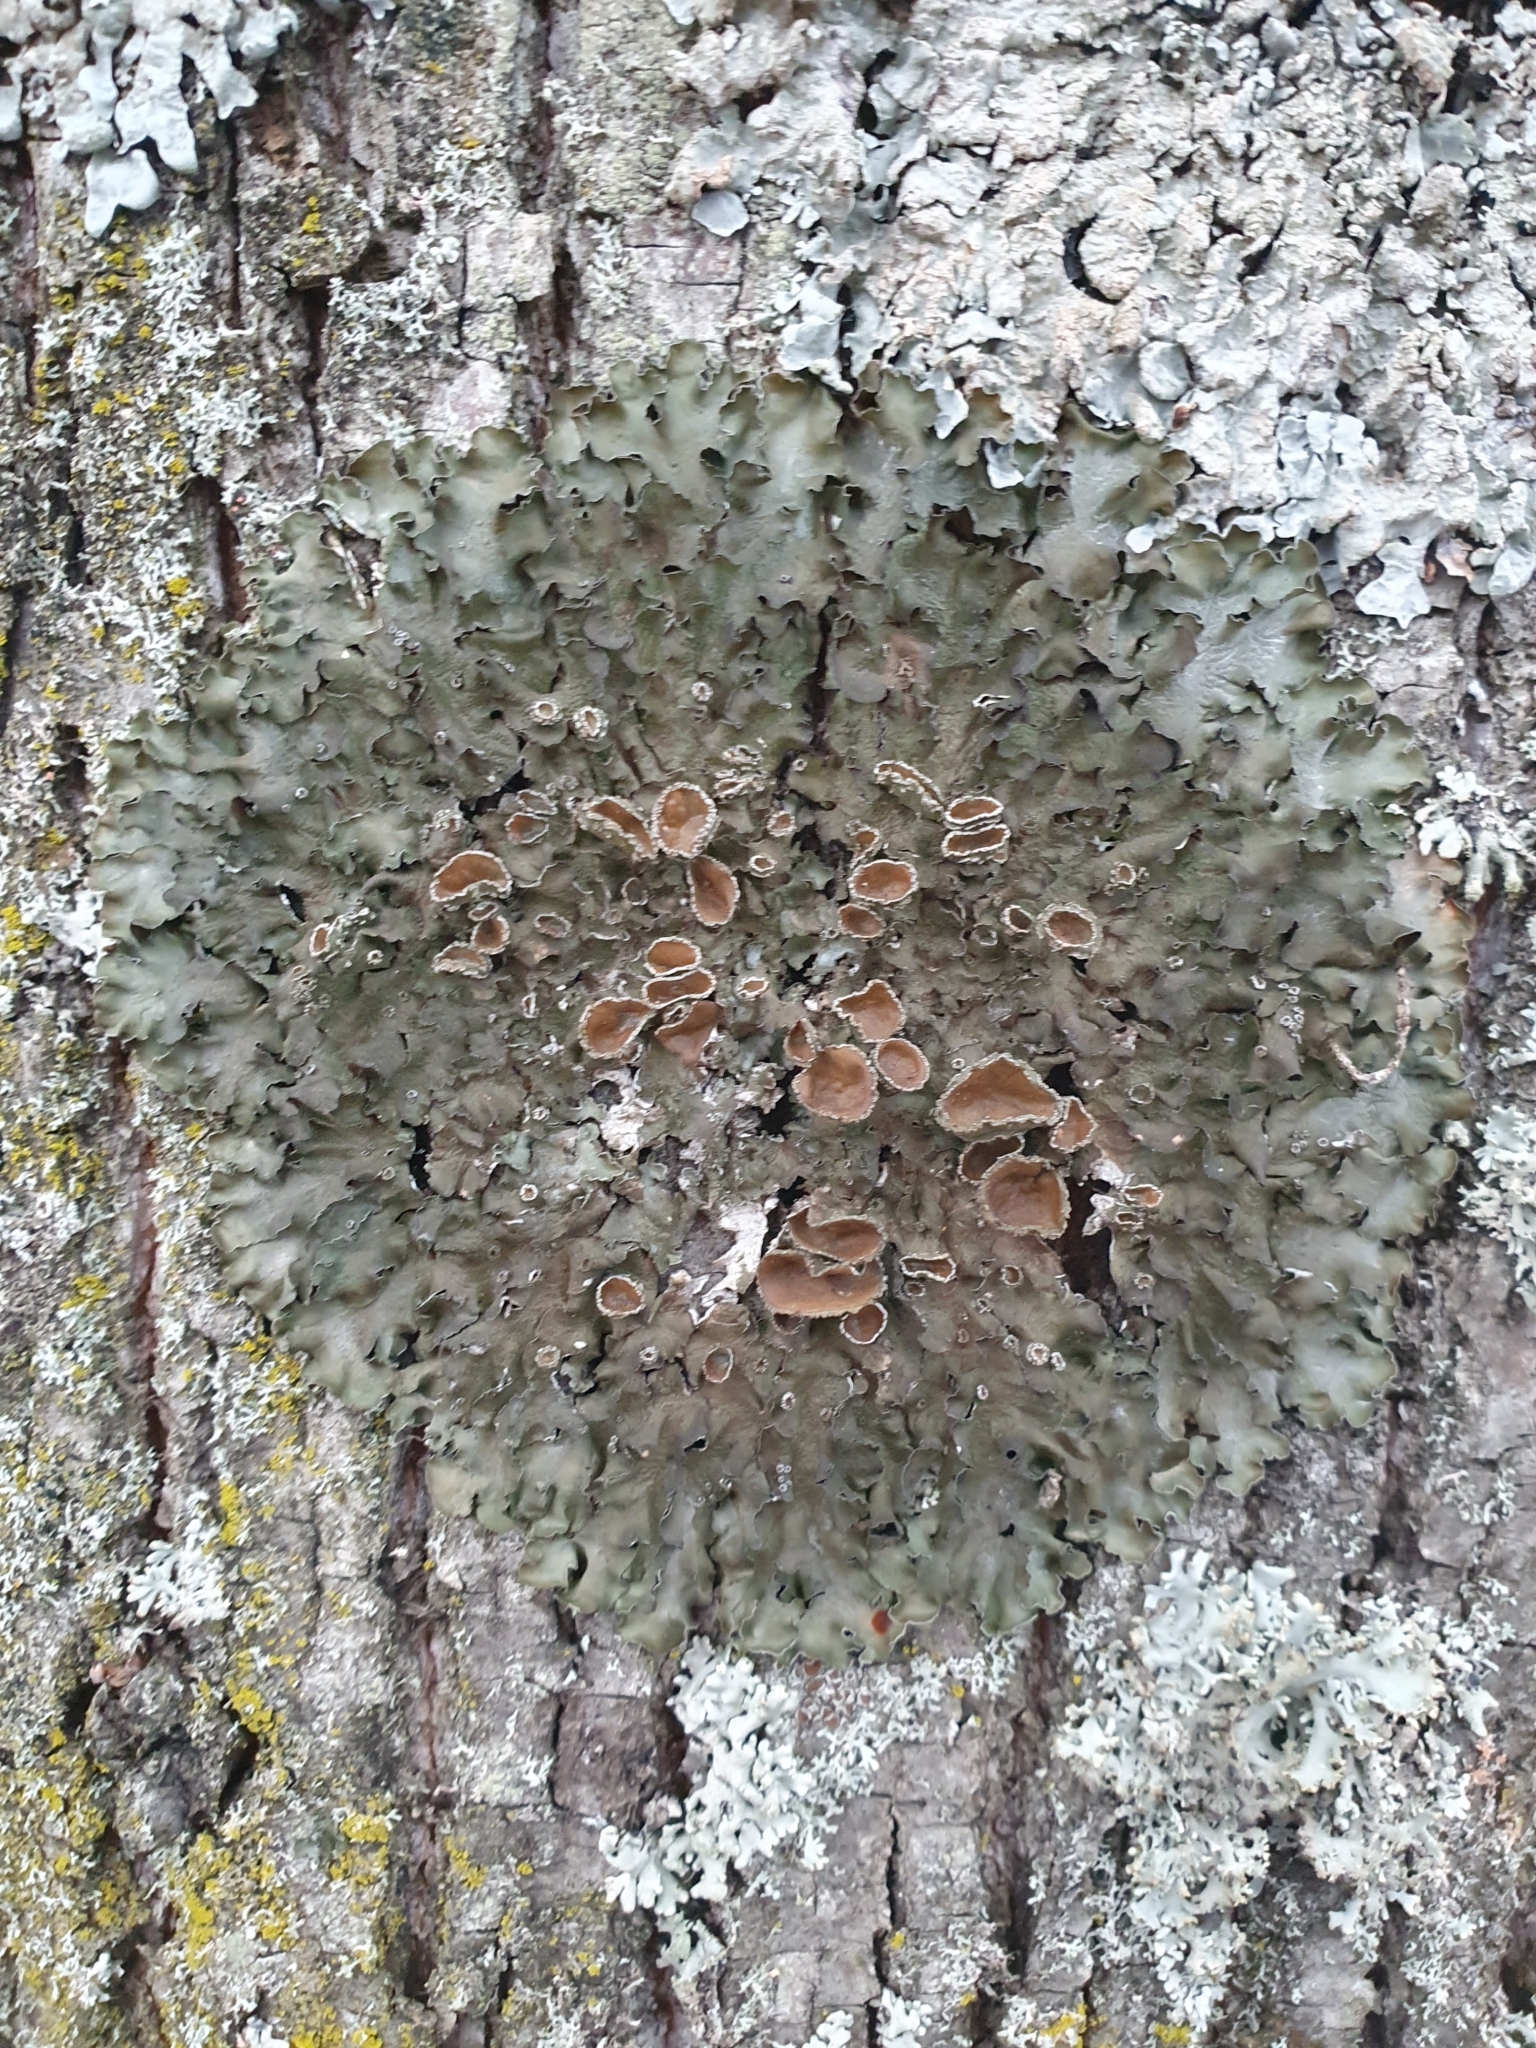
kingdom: Fungi
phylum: Ascomycota
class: Lecanoromycetes
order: Lecanorales
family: Parmeliaceae
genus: Pleurosticta
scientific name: Pleurosticta acetabulum
